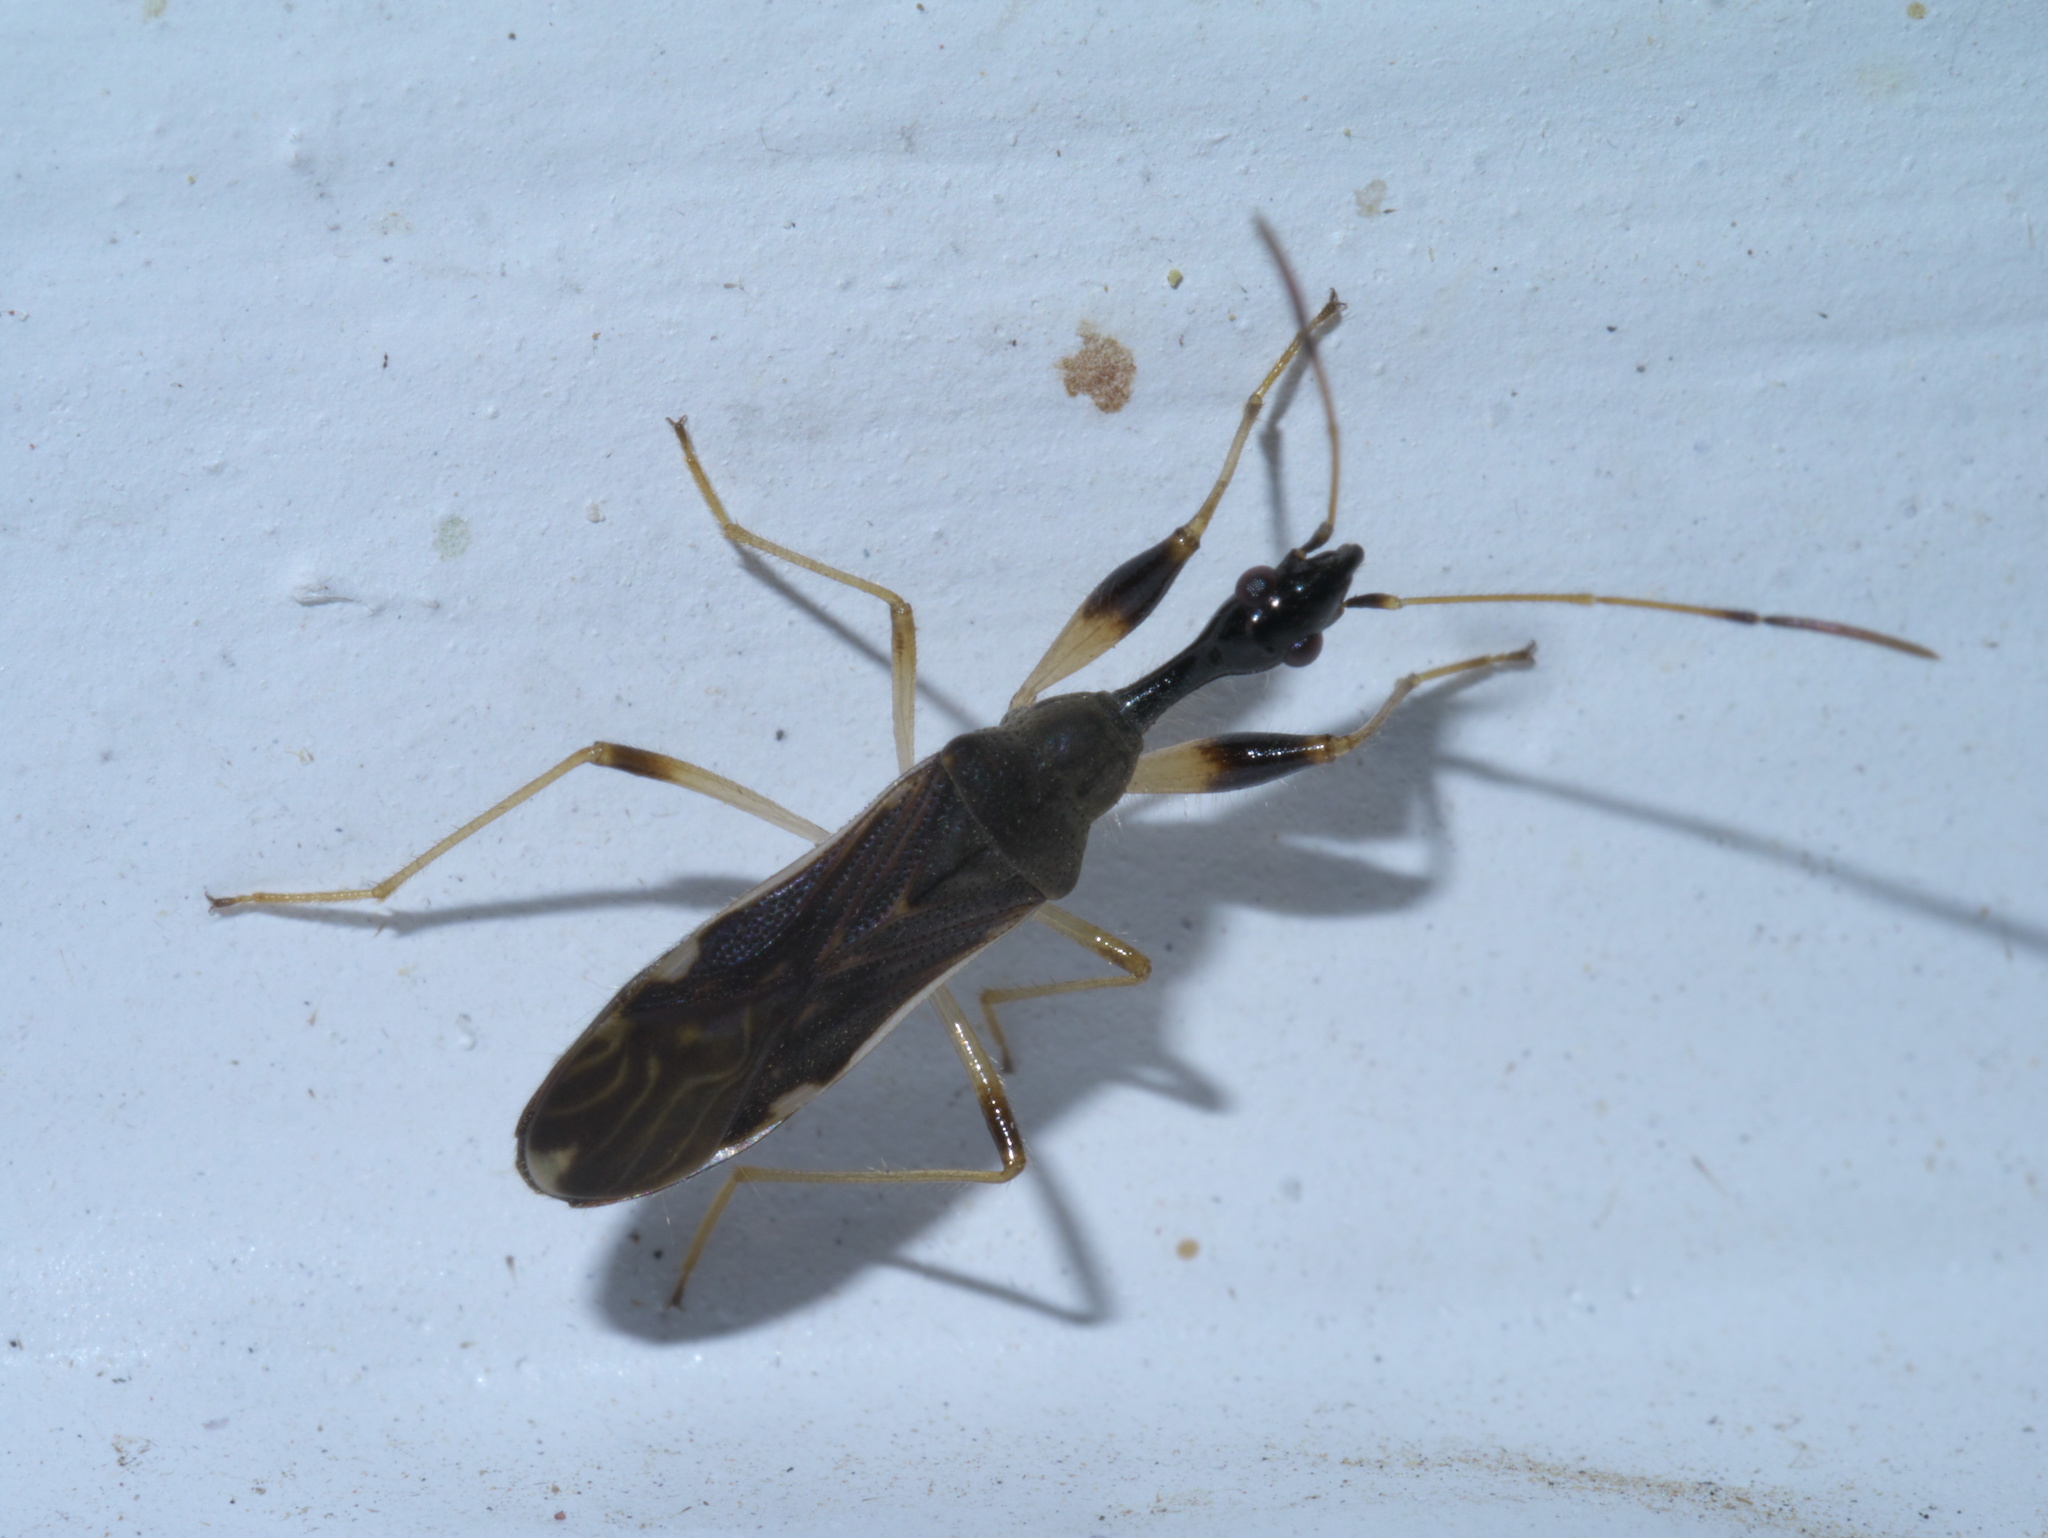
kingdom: Animalia
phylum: Arthropoda
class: Insecta
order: Hemiptera
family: Rhyparochromidae
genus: Myodocha
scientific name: Myodocha serripes
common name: Long-necked seed bug
